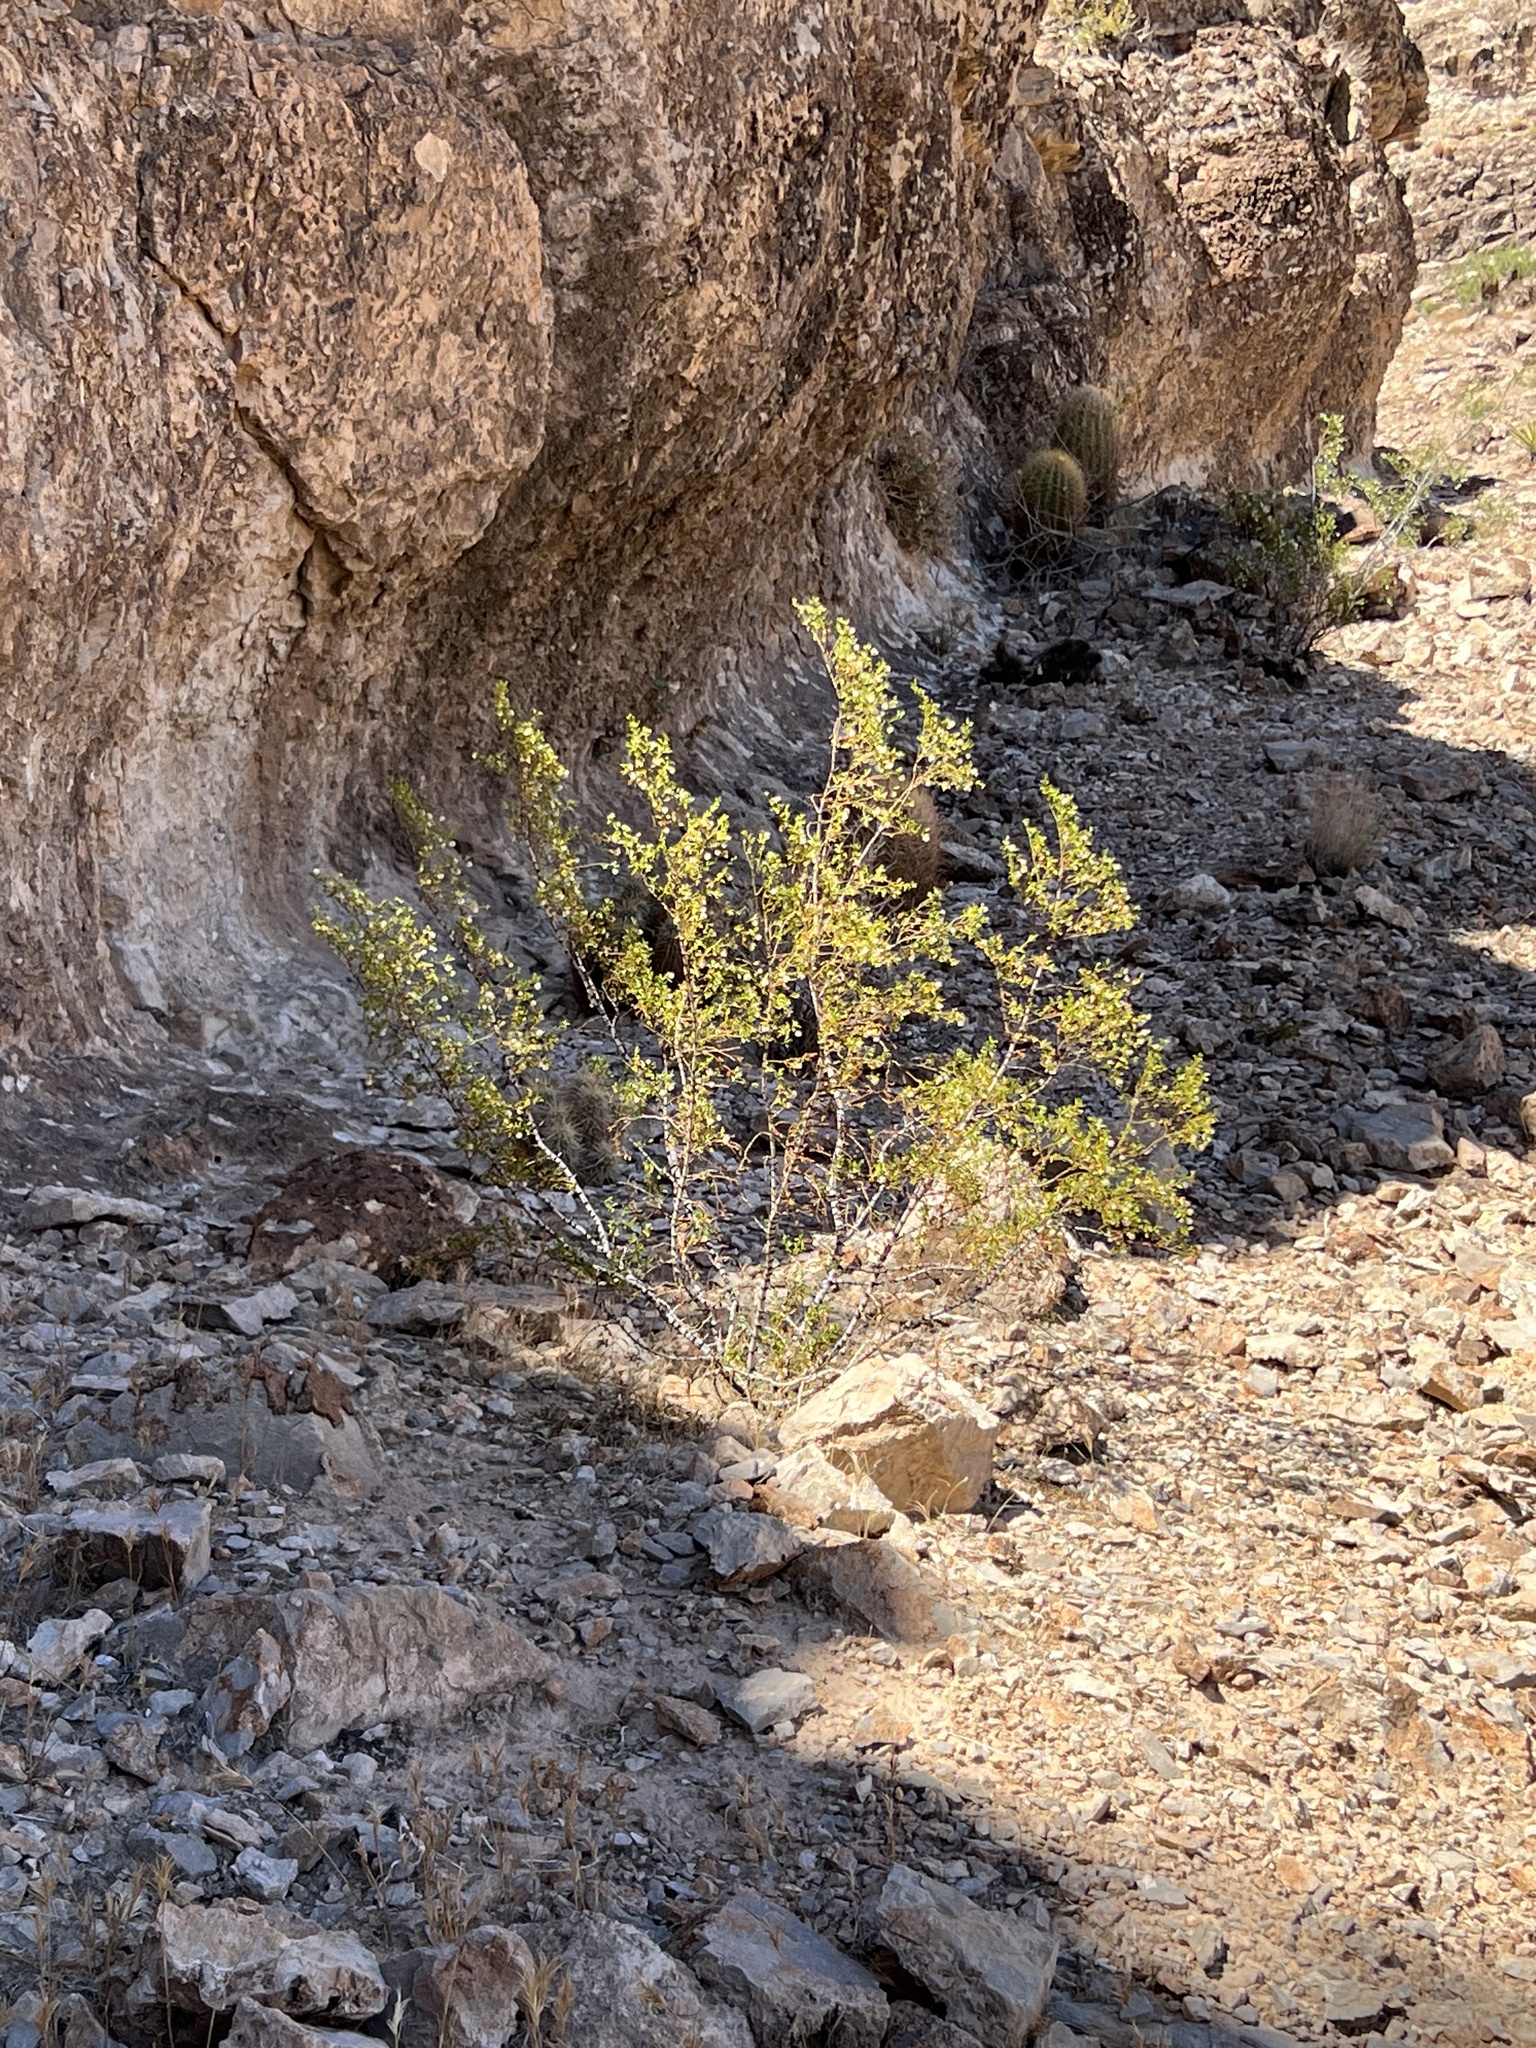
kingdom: Plantae
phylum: Tracheophyta
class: Magnoliopsida
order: Zygophyllales
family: Zygophyllaceae
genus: Larrea
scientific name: Larrea tridentata
